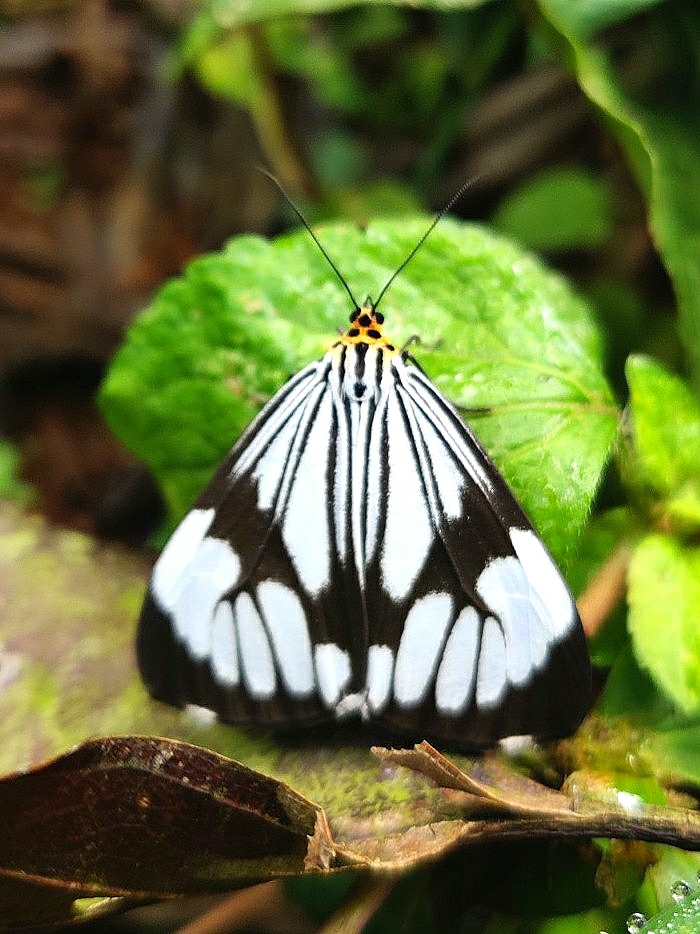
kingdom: Animalia
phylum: Arthropoda
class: Insecta
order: Lepidoptera
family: Erebidae
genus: Nyctemera
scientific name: Nyctemera coleta
